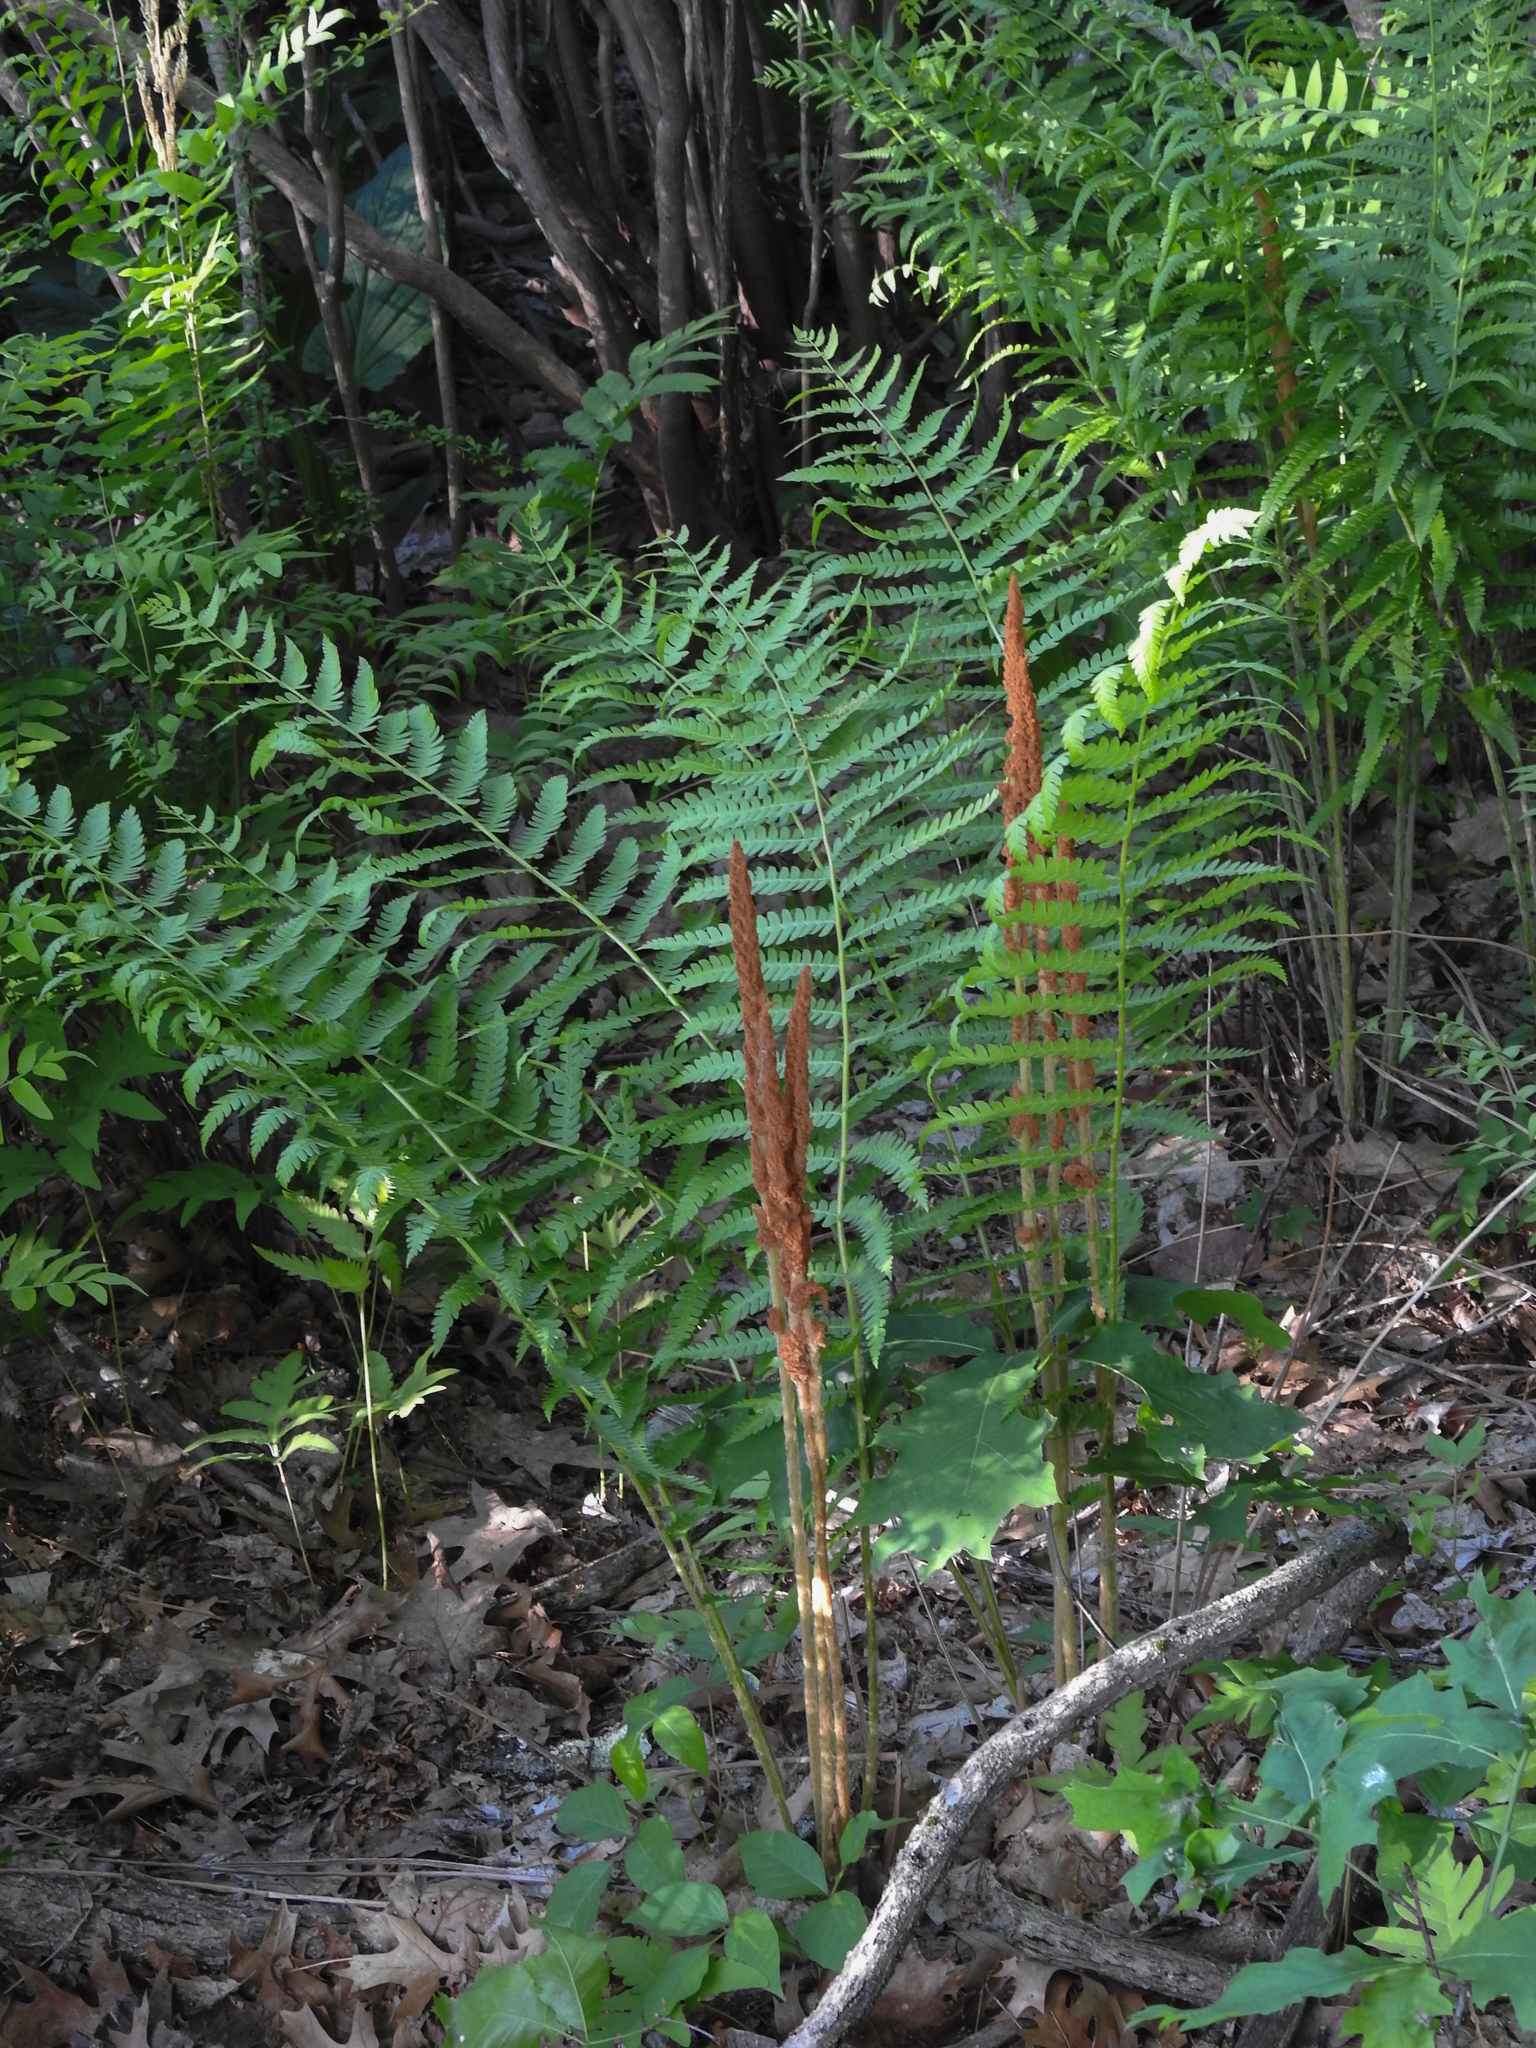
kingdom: Plantae
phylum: Tracheophyta
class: Polypodiopsida
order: Osmundales
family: Osmundaceae
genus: Osmundastrum
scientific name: Osmundastrum cinnamomeum
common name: Cinnamon fern
